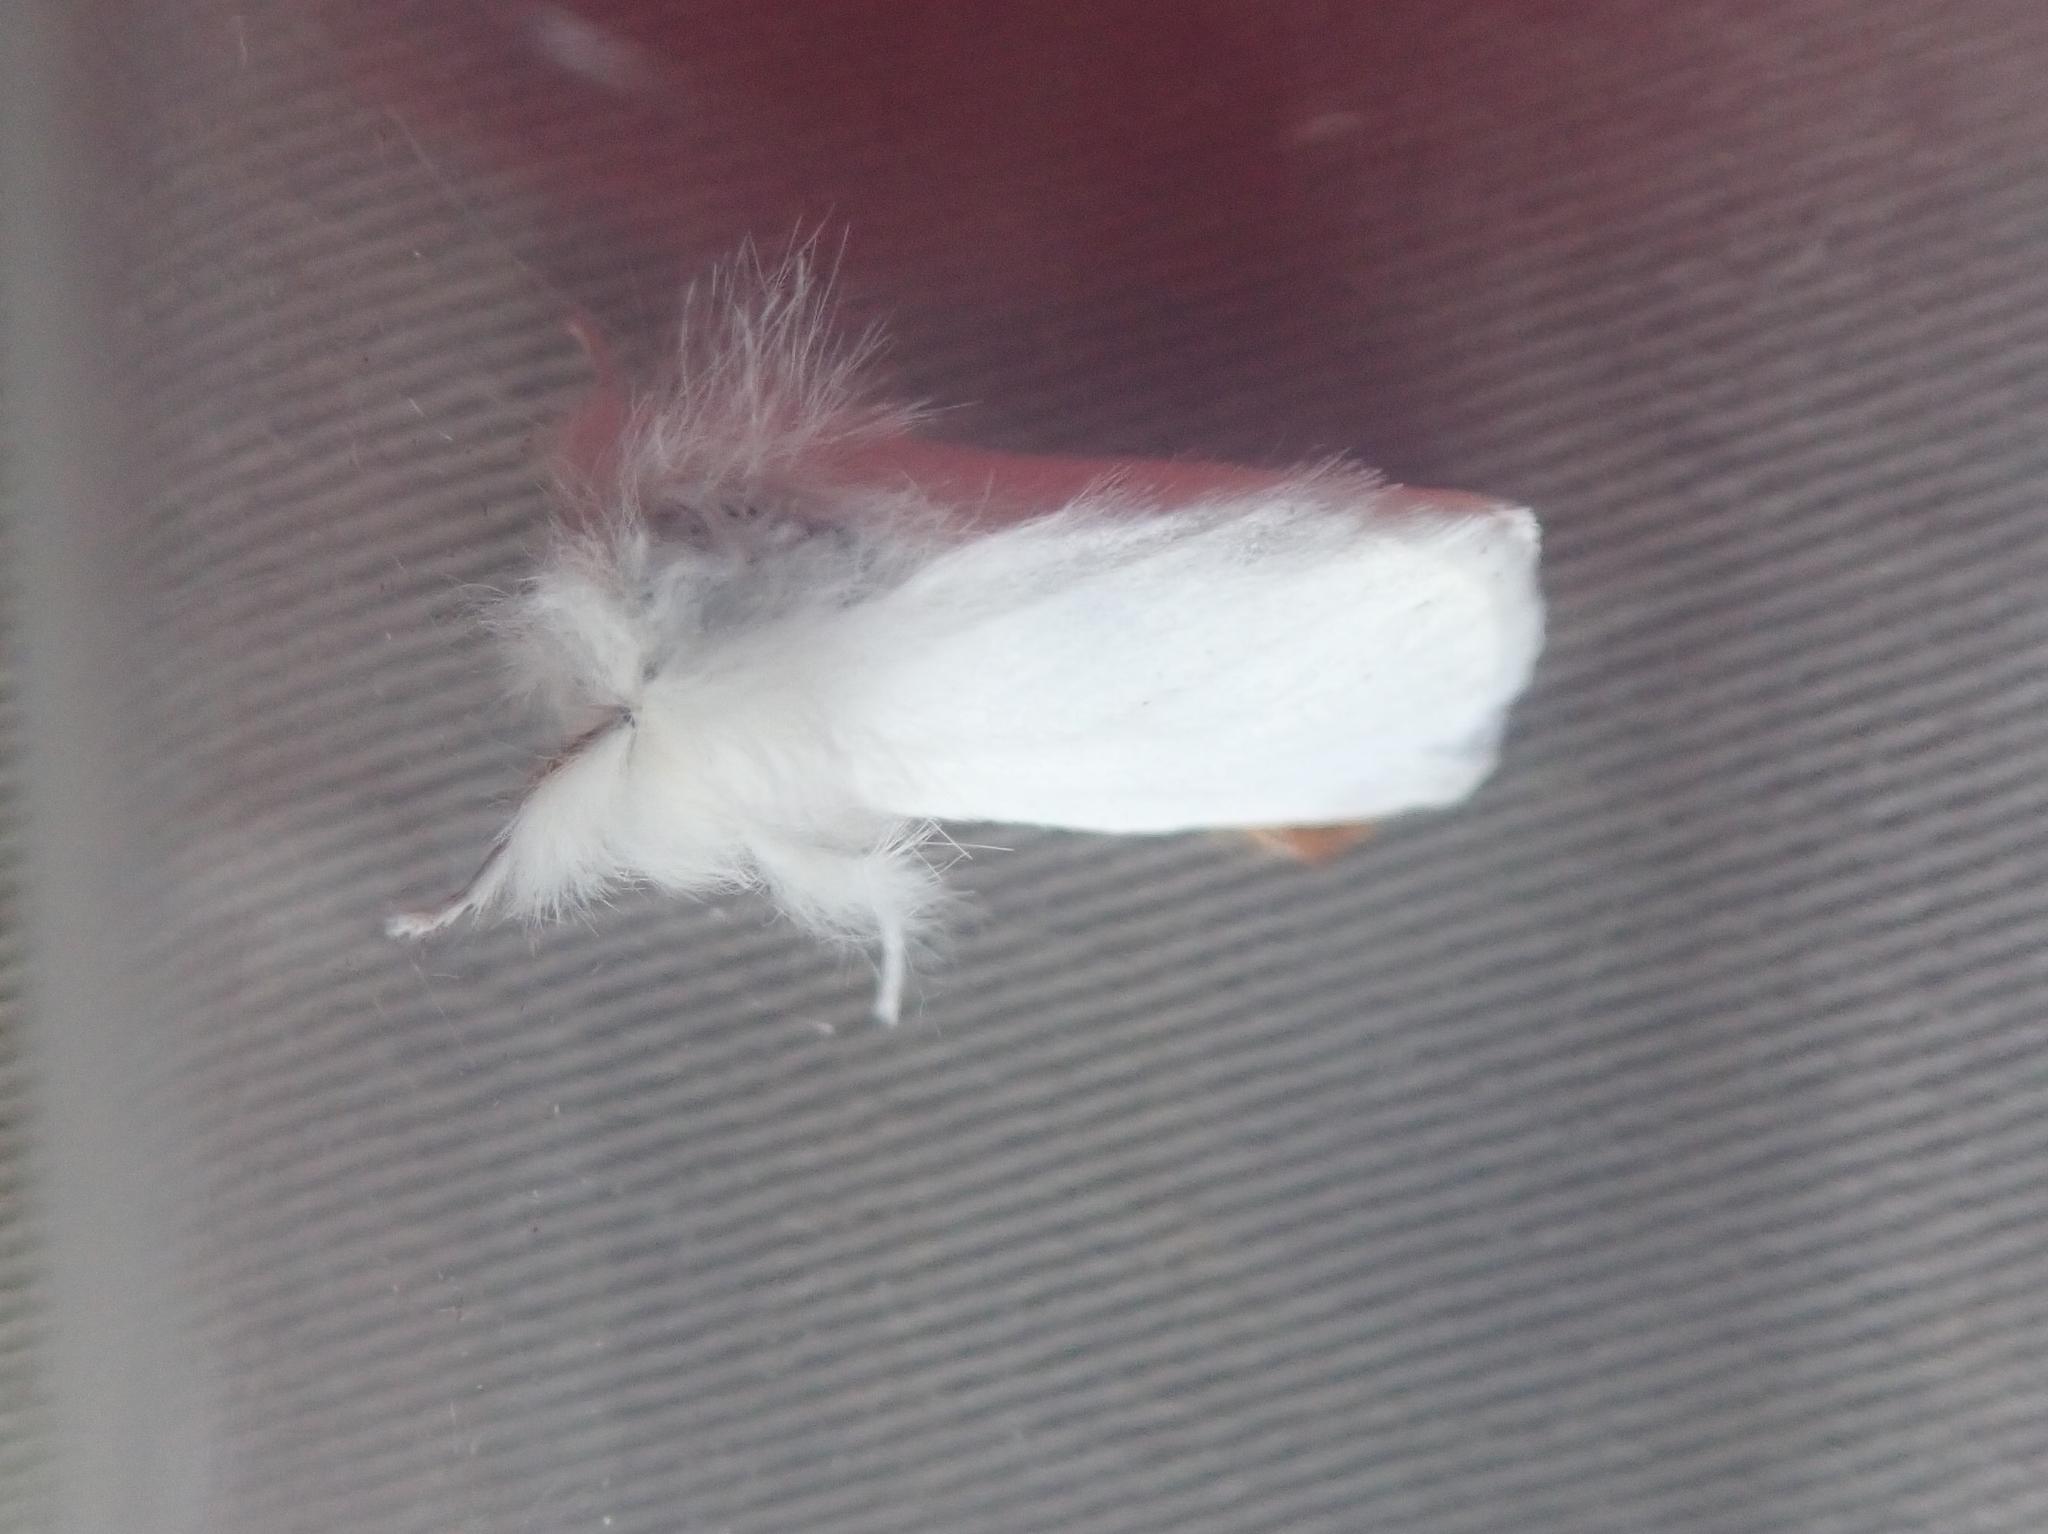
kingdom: Animalia
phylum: Arthropoda
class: Insecta
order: Lepidoptera
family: Erebidae
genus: Euproctis
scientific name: Euproctis chrysorrhoea
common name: Brown-tail
